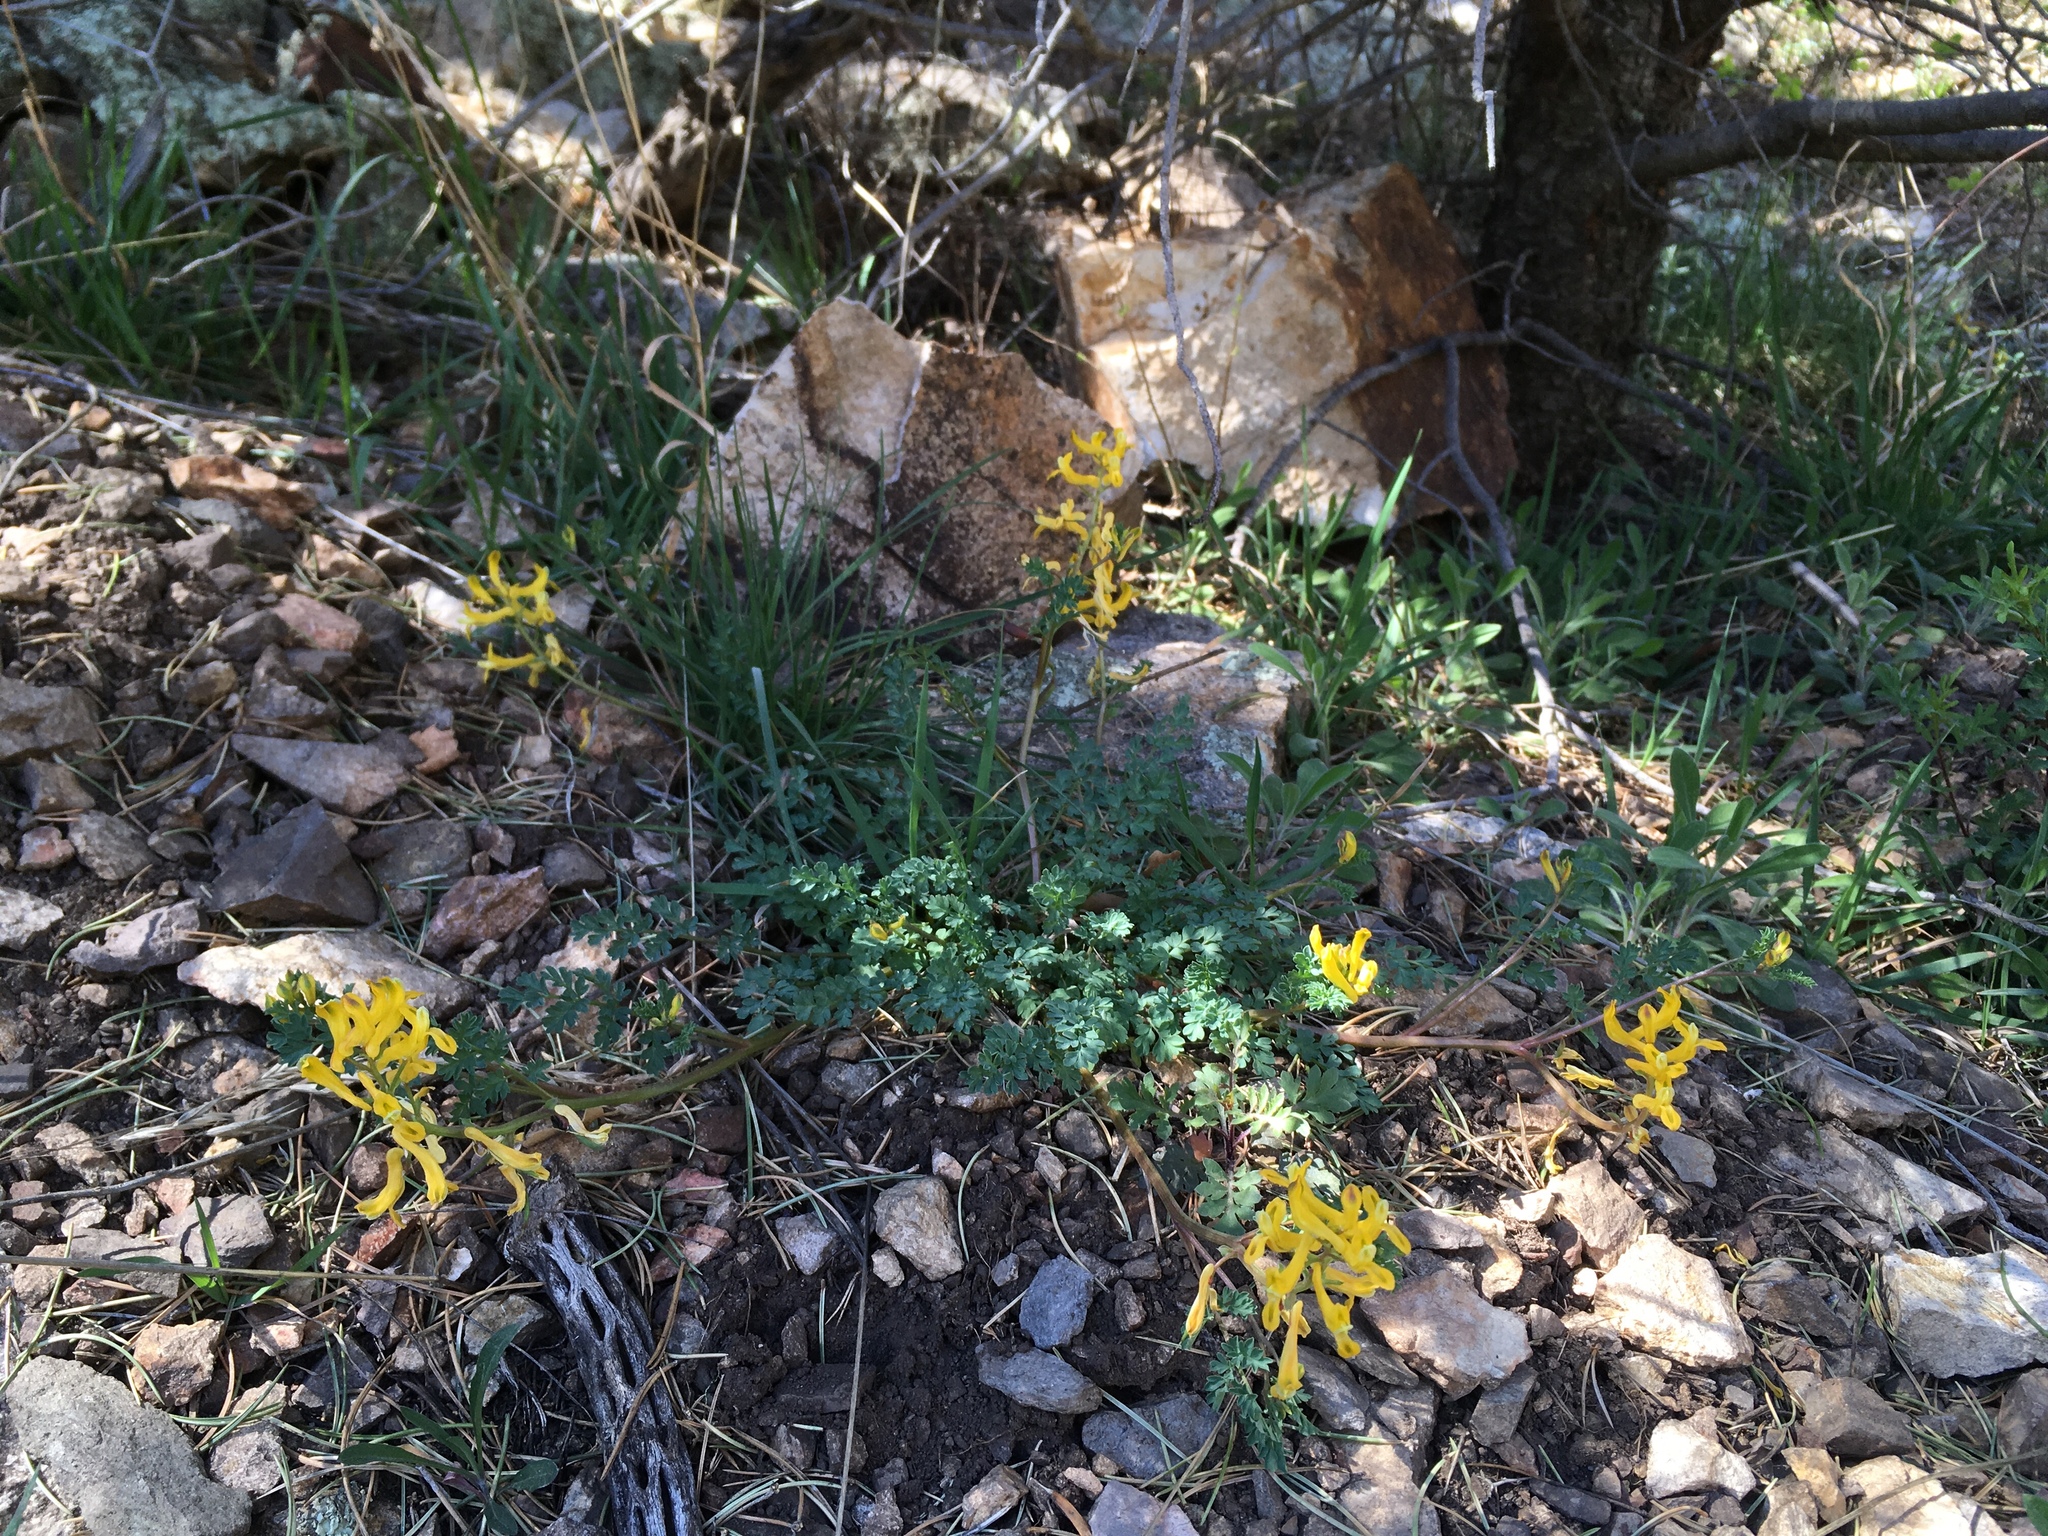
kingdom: Plantae
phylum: Tracheophyta
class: Magnoliopsida
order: Ranunculales
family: Papaveraceae
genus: Corydalis
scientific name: Corydalis aurea
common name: Golden corydalis
